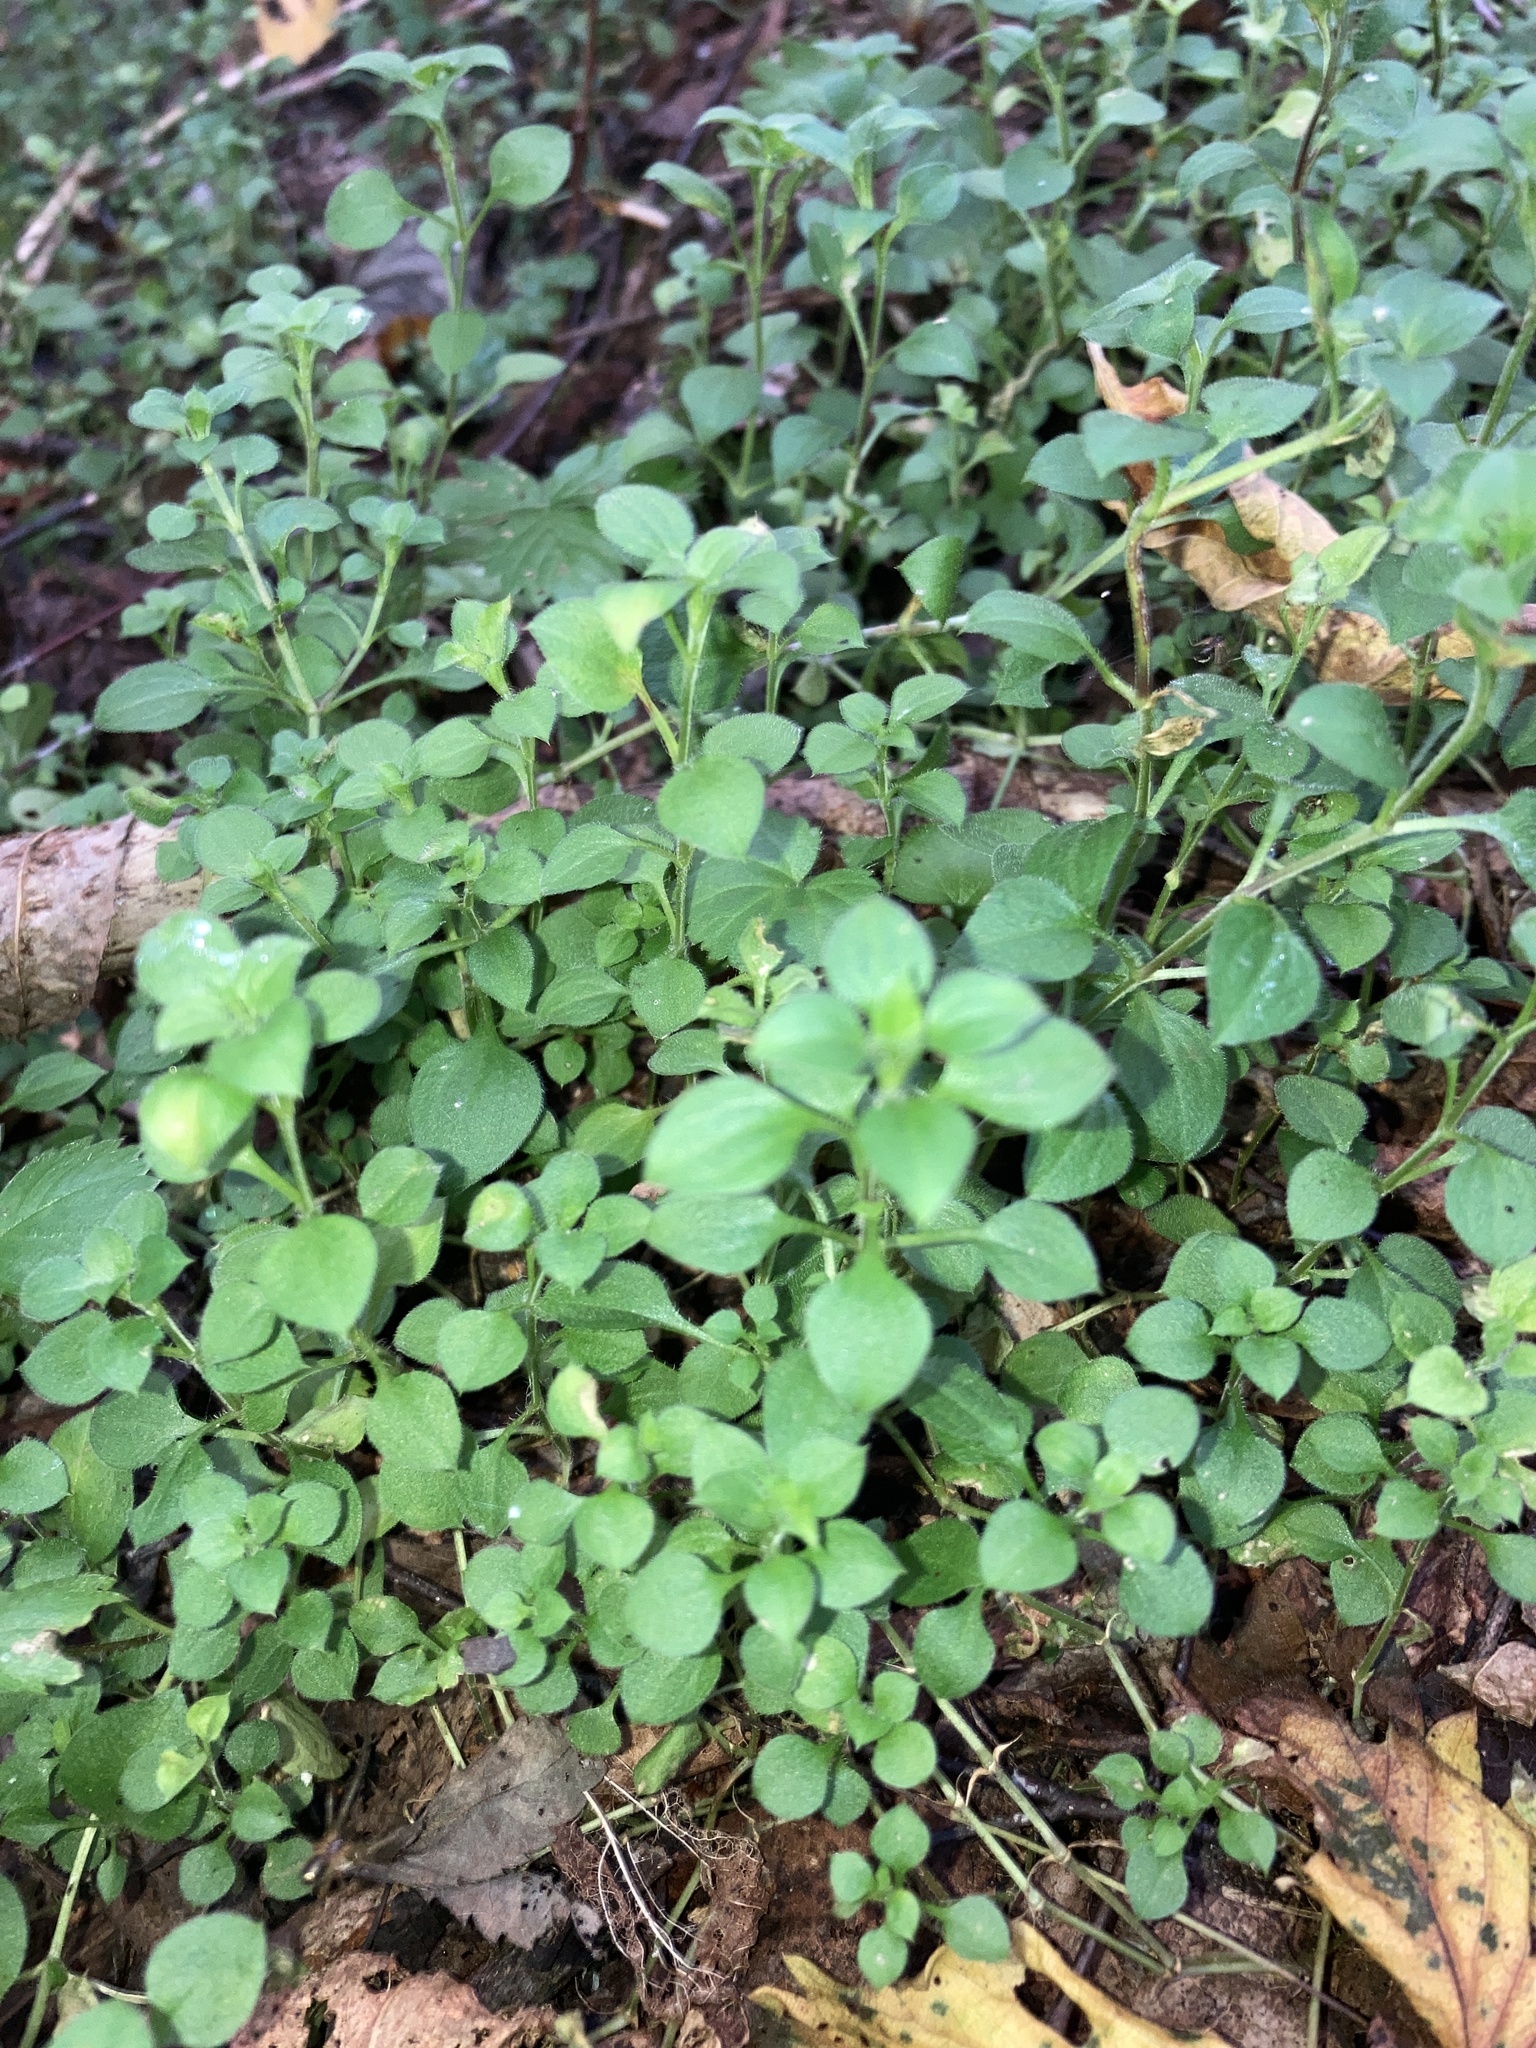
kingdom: Plantae
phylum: Tracheophyta
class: Magnoliopsida
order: Caryophyllales
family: Caryophyllaceae
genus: Moehringia
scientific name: Moehringia trinervia
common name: Three-nerved sandwort
